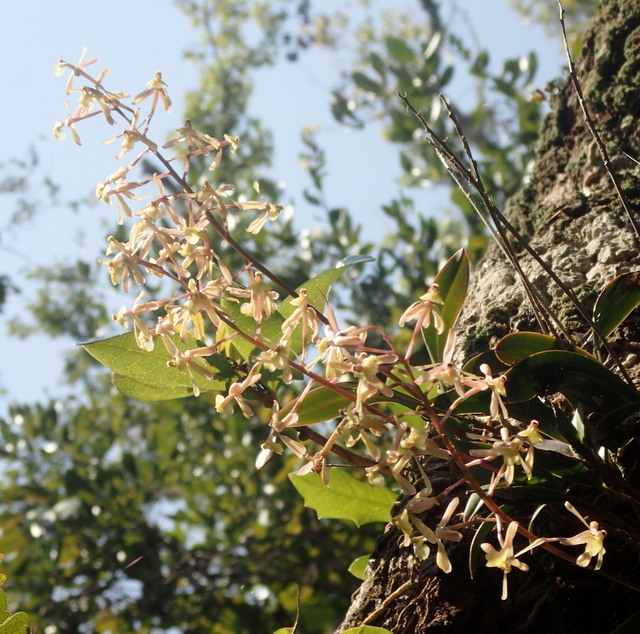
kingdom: Plantae
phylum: Tracheophyta
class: Liliopsida
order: Asparagales
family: Orchidaceae
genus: Epidendrum
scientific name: Epidendrum conopseum
